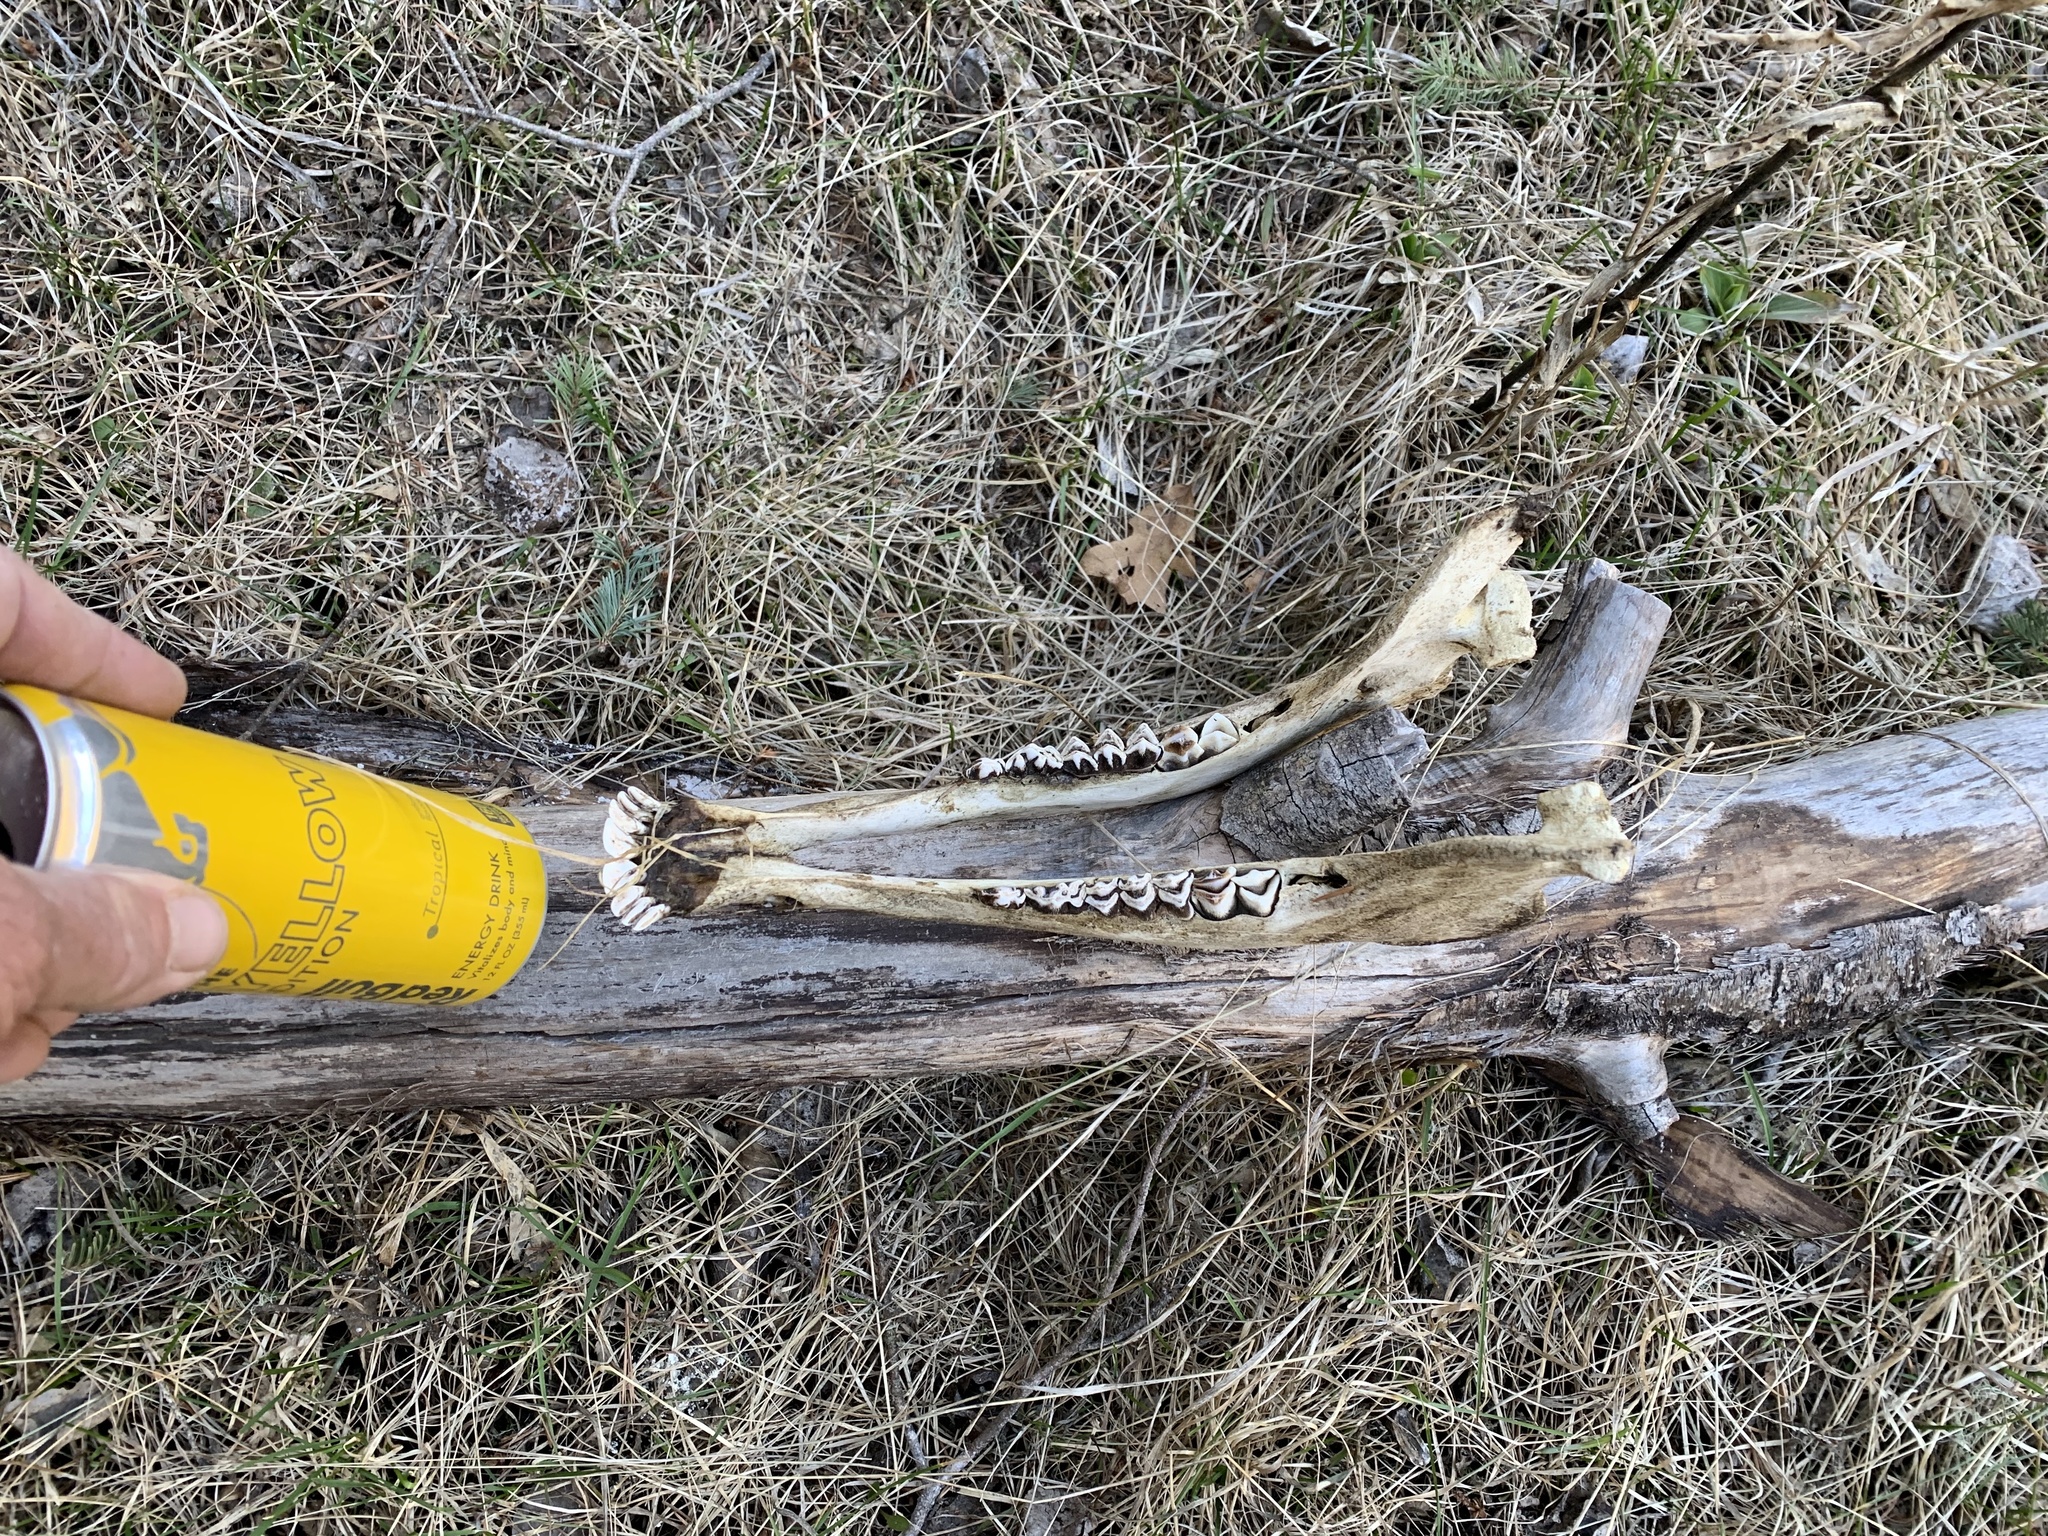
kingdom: Animalia
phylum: Chordata
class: Mammalia
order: Artiodactyla
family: Cervidae
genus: Odocoileus
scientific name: Odocoileus hemionus
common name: Mule deer
